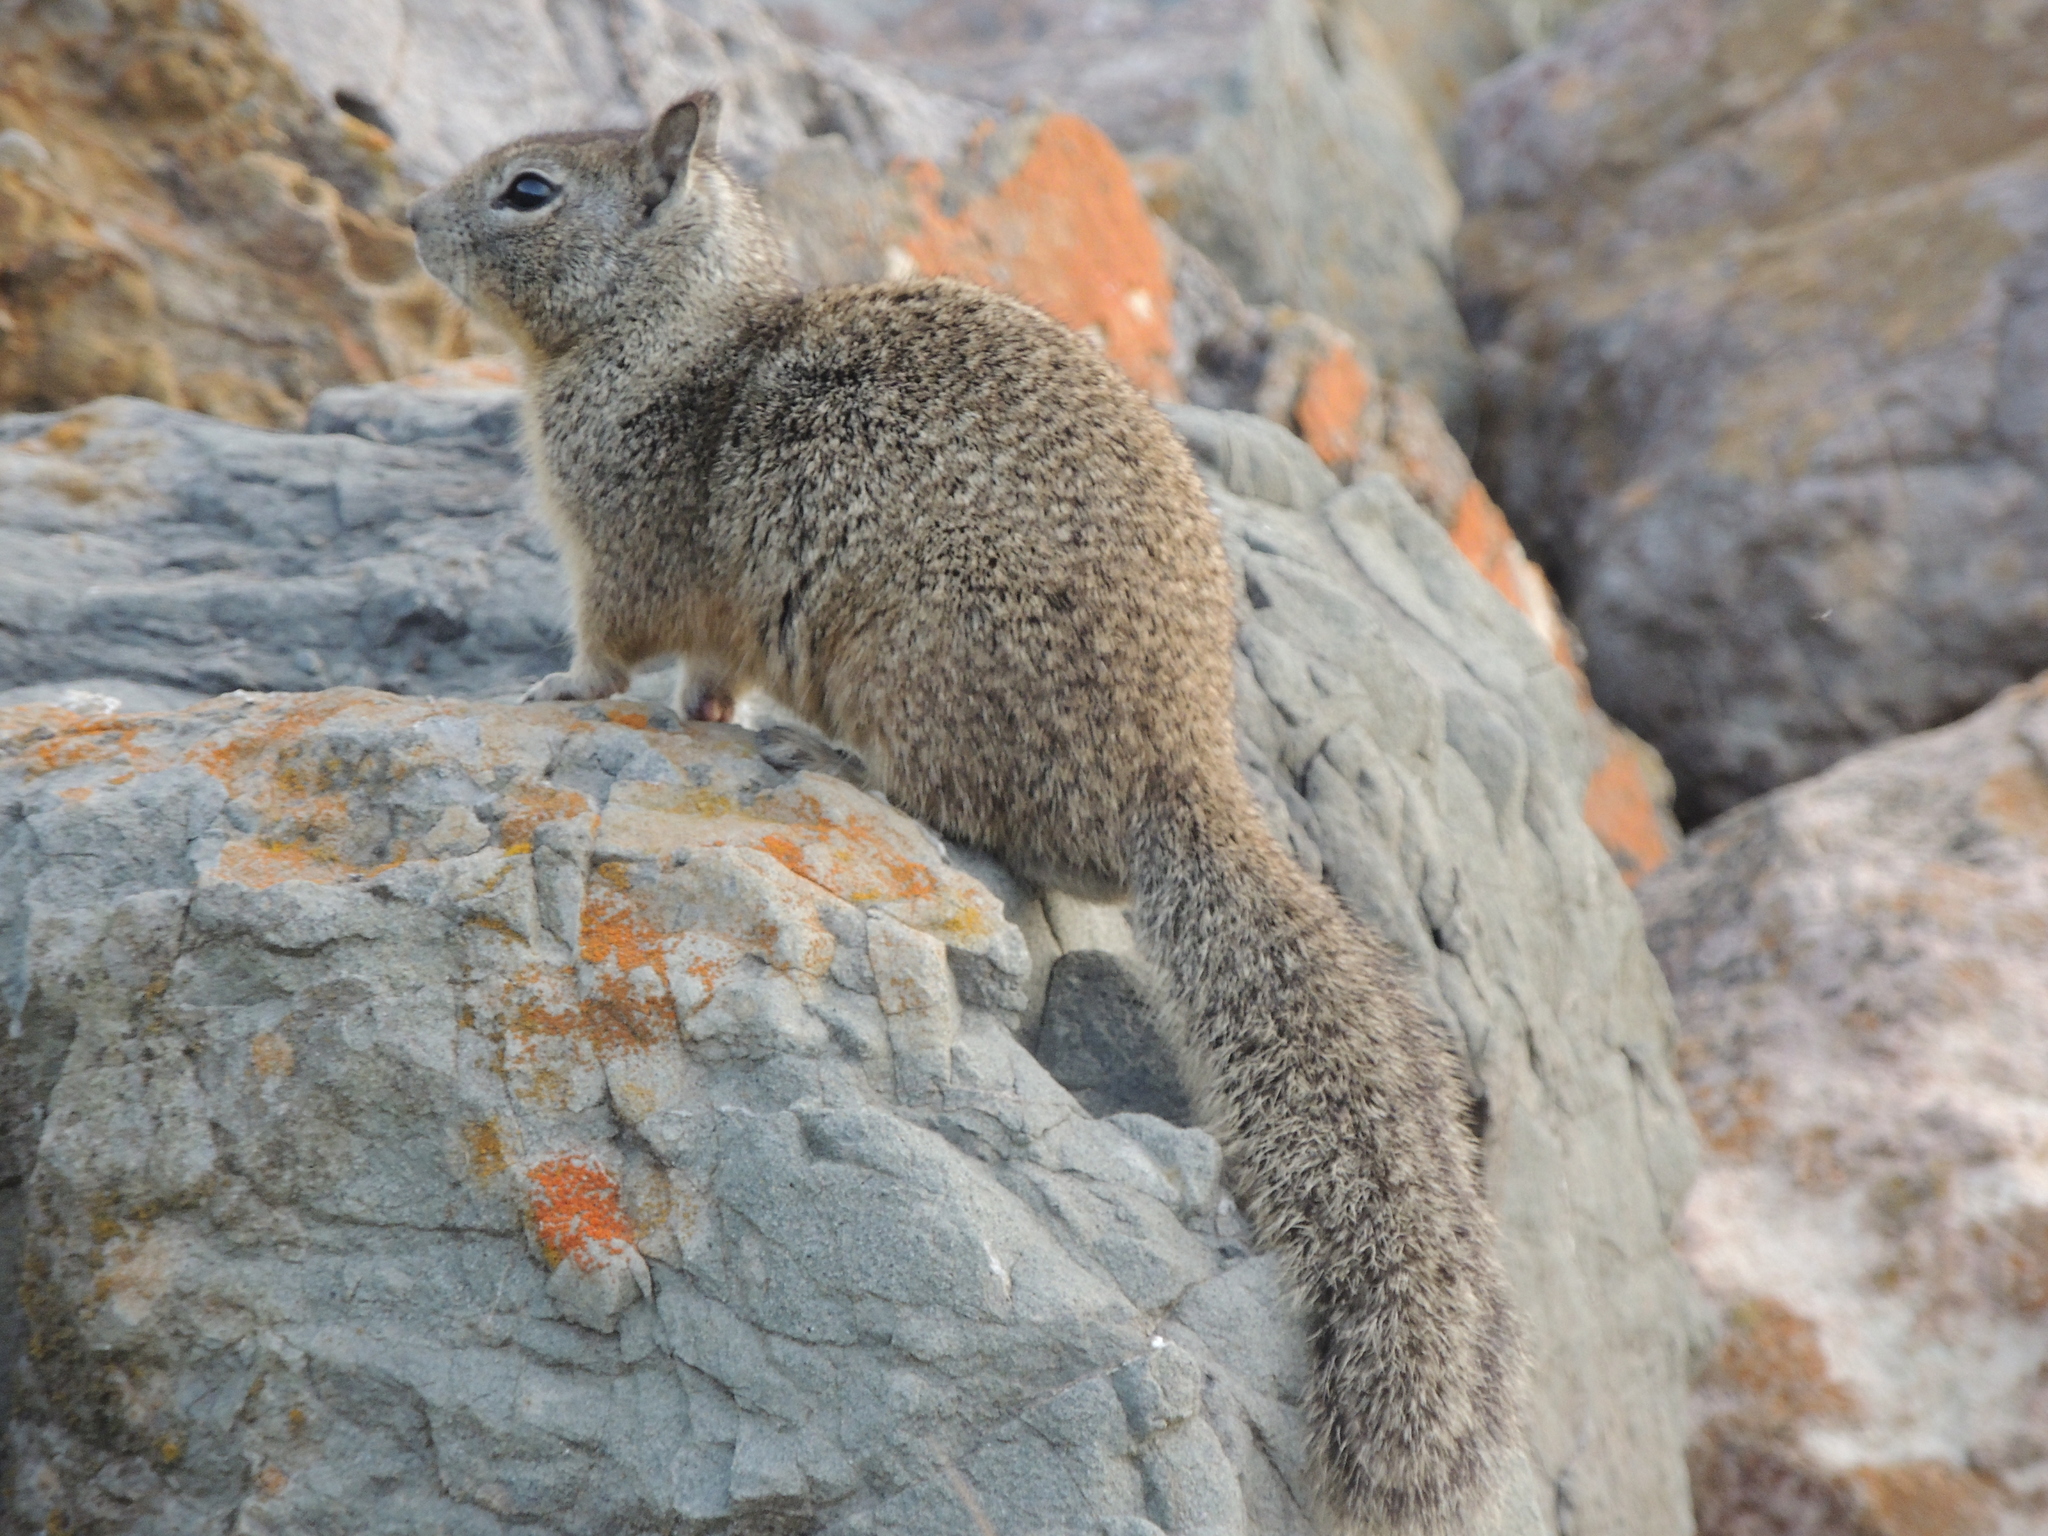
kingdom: Animalia
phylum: Chordata
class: Mammalia
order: Rodentia
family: Sciuridae
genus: Otospermophilus
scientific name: Otospermophilus beecheyi
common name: California ground squirrel
